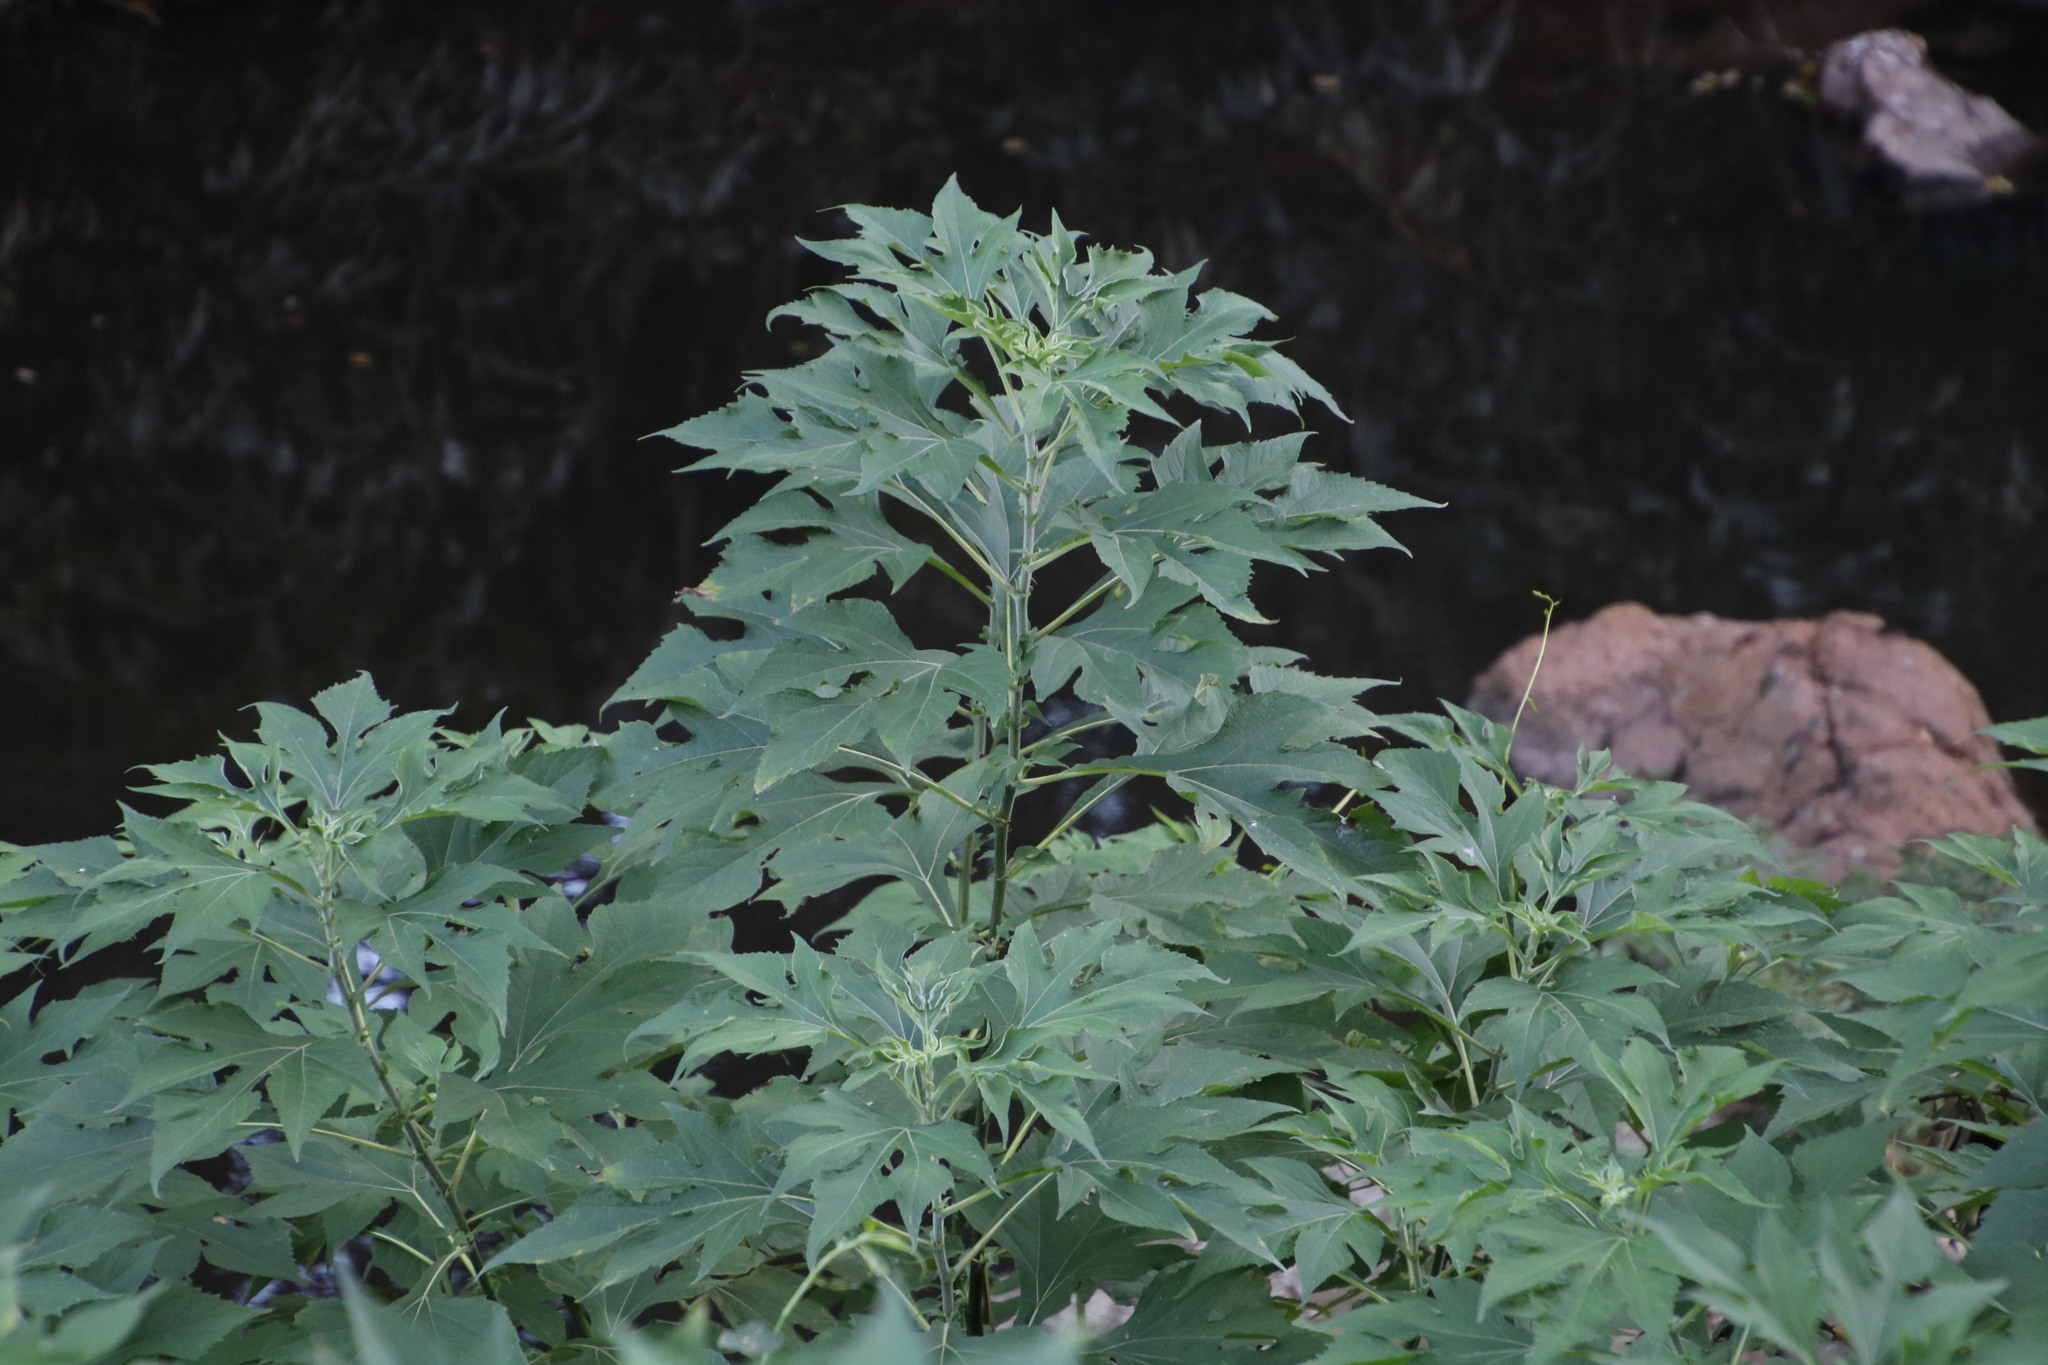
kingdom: Plantae
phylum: Tracheophyta
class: Magnoliopsida
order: Asterales
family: Asteraceae
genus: Tithonia
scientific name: Tithonia diversifolia
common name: Tree marigold
